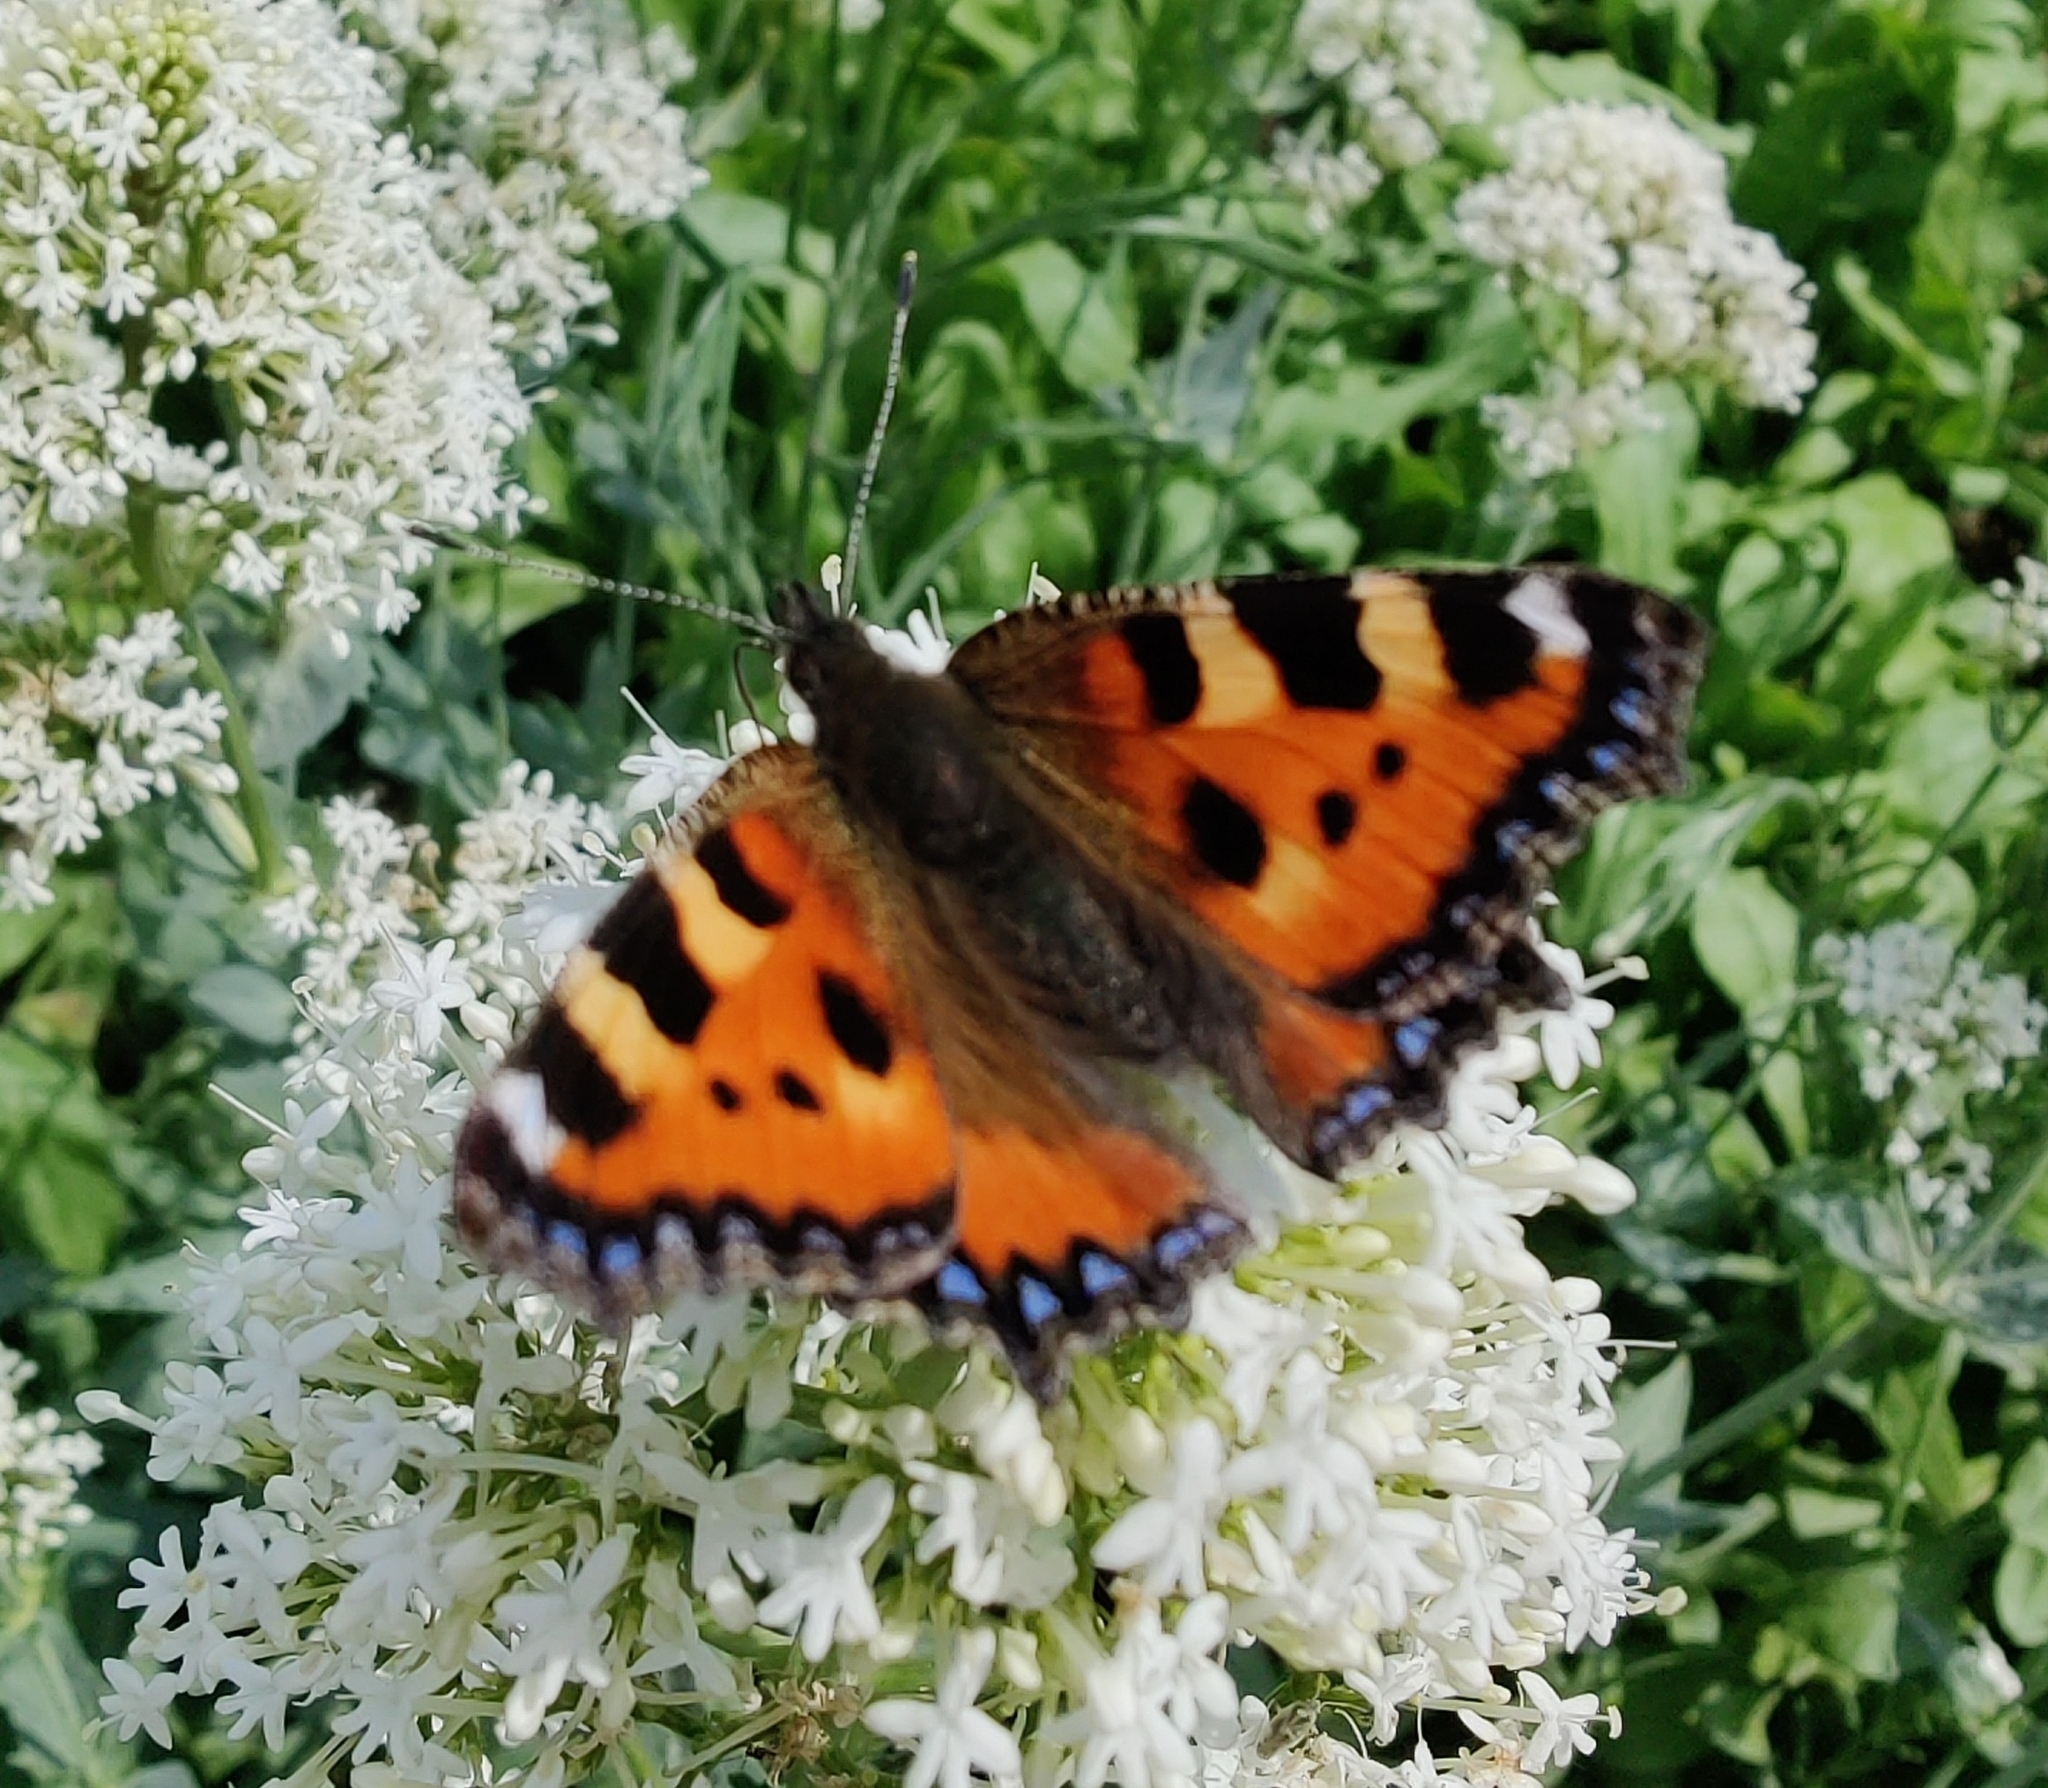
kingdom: Animalia
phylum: Arthropoda
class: Insecta
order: Lepidoptera
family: Nymphalidae
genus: Aglais
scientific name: Aglais urticae
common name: Small tortoiseshell
